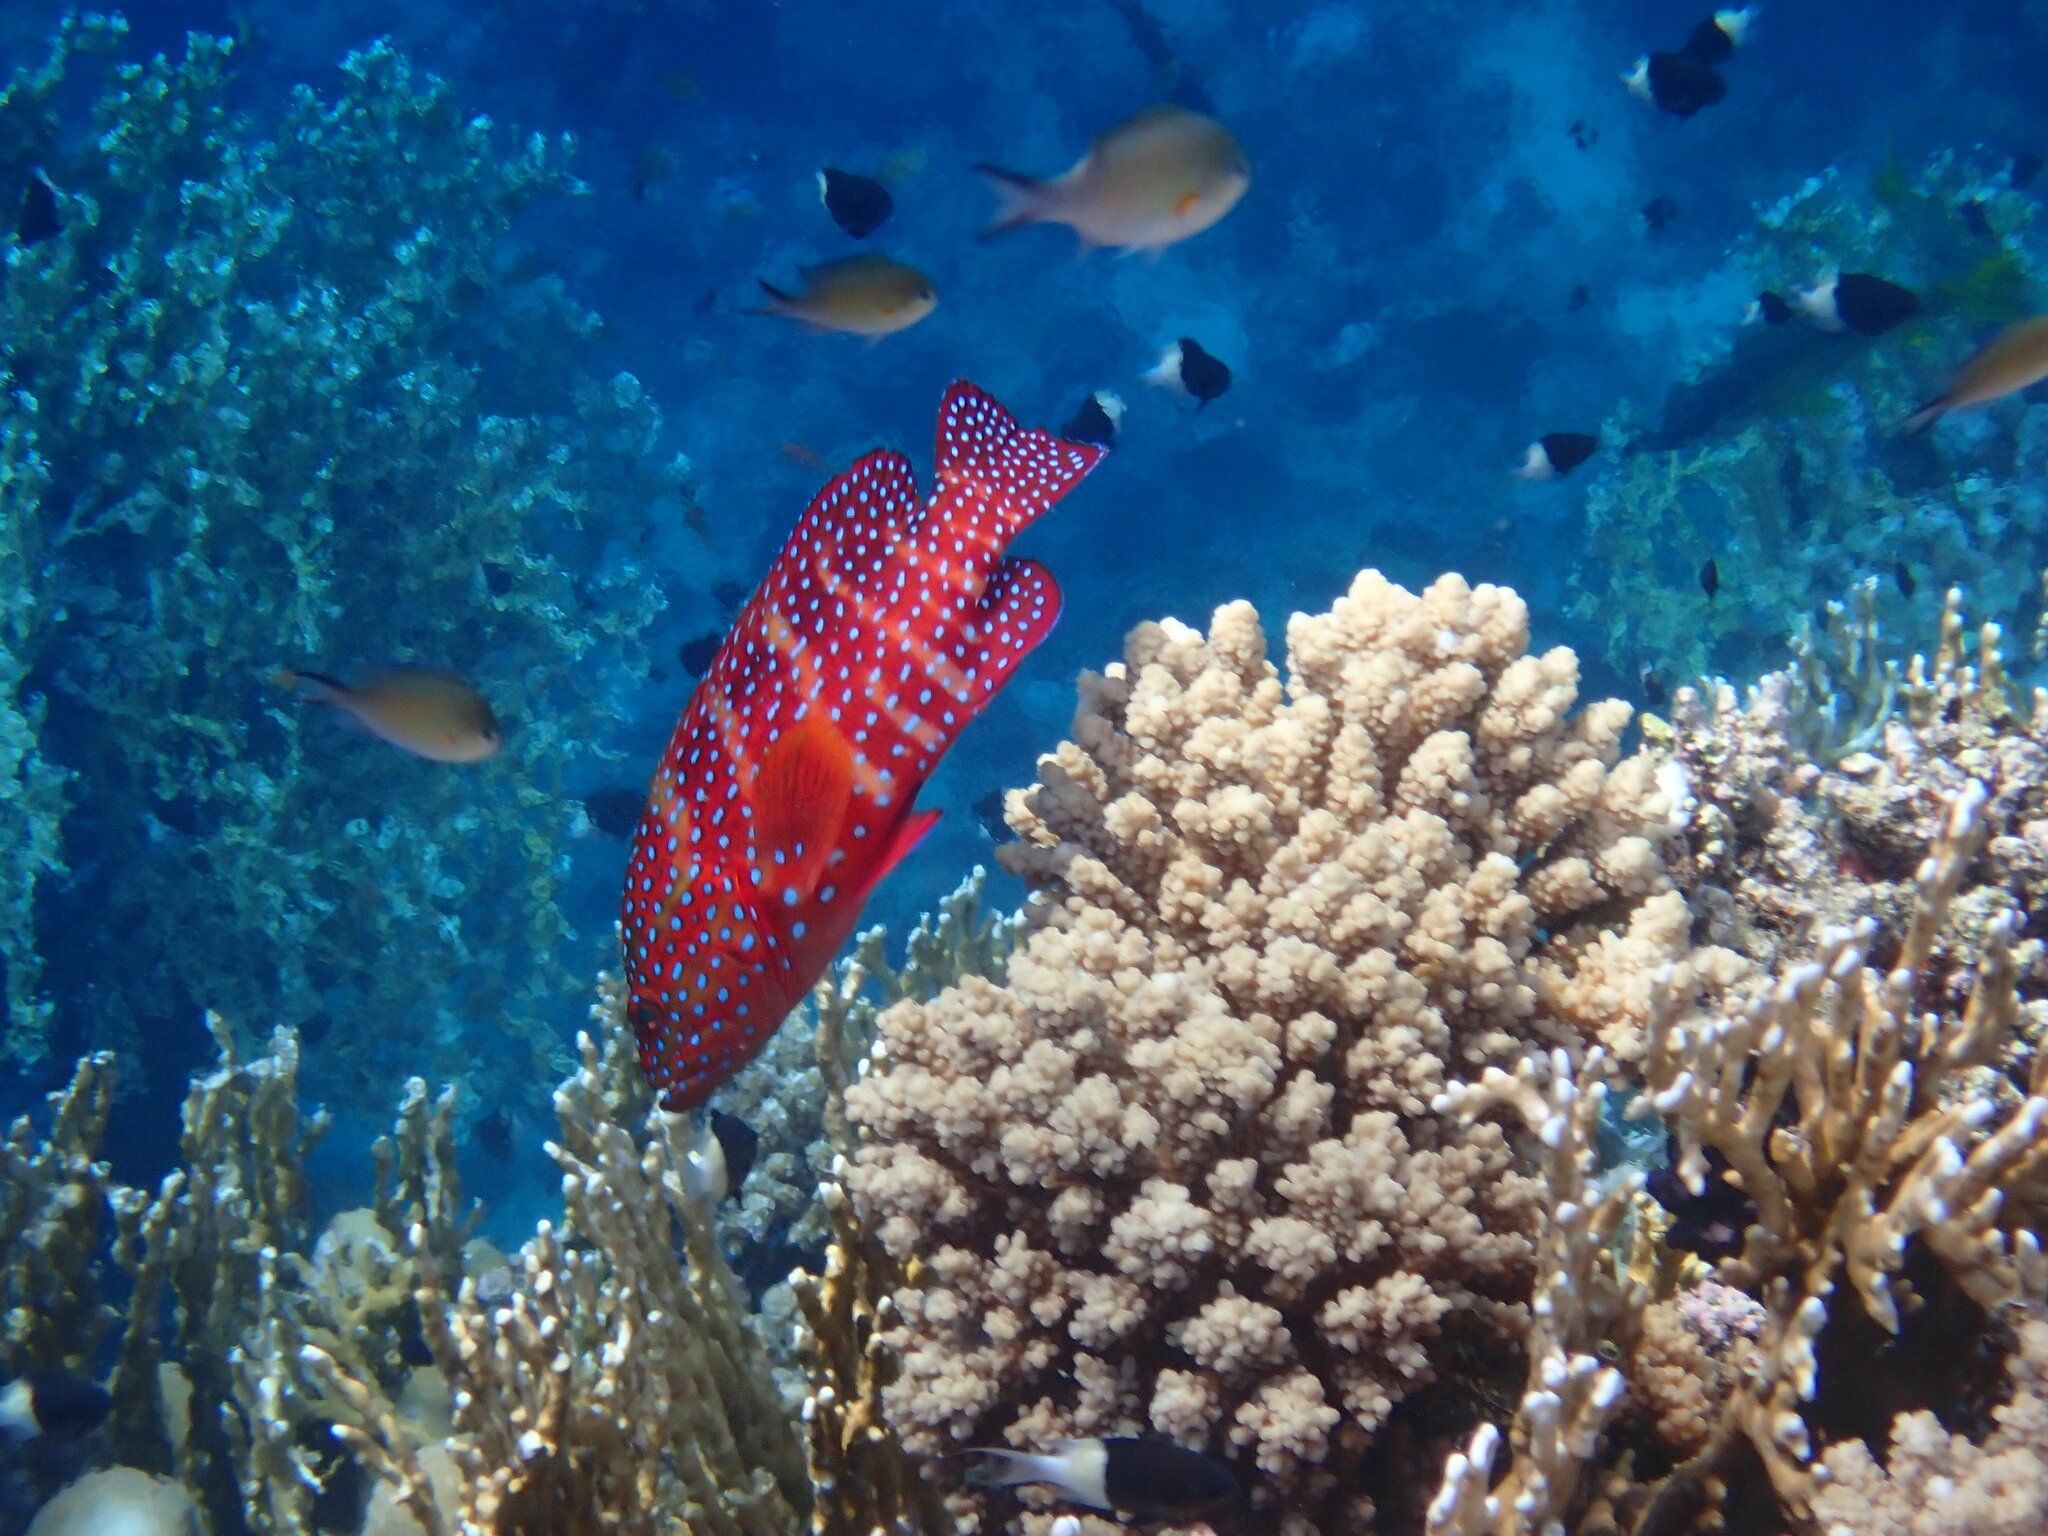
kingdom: Animalia
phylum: Chordata
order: Perciformes
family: Serranidae
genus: Cephalopholis
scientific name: Cephalopholis miniata
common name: Coral hind
